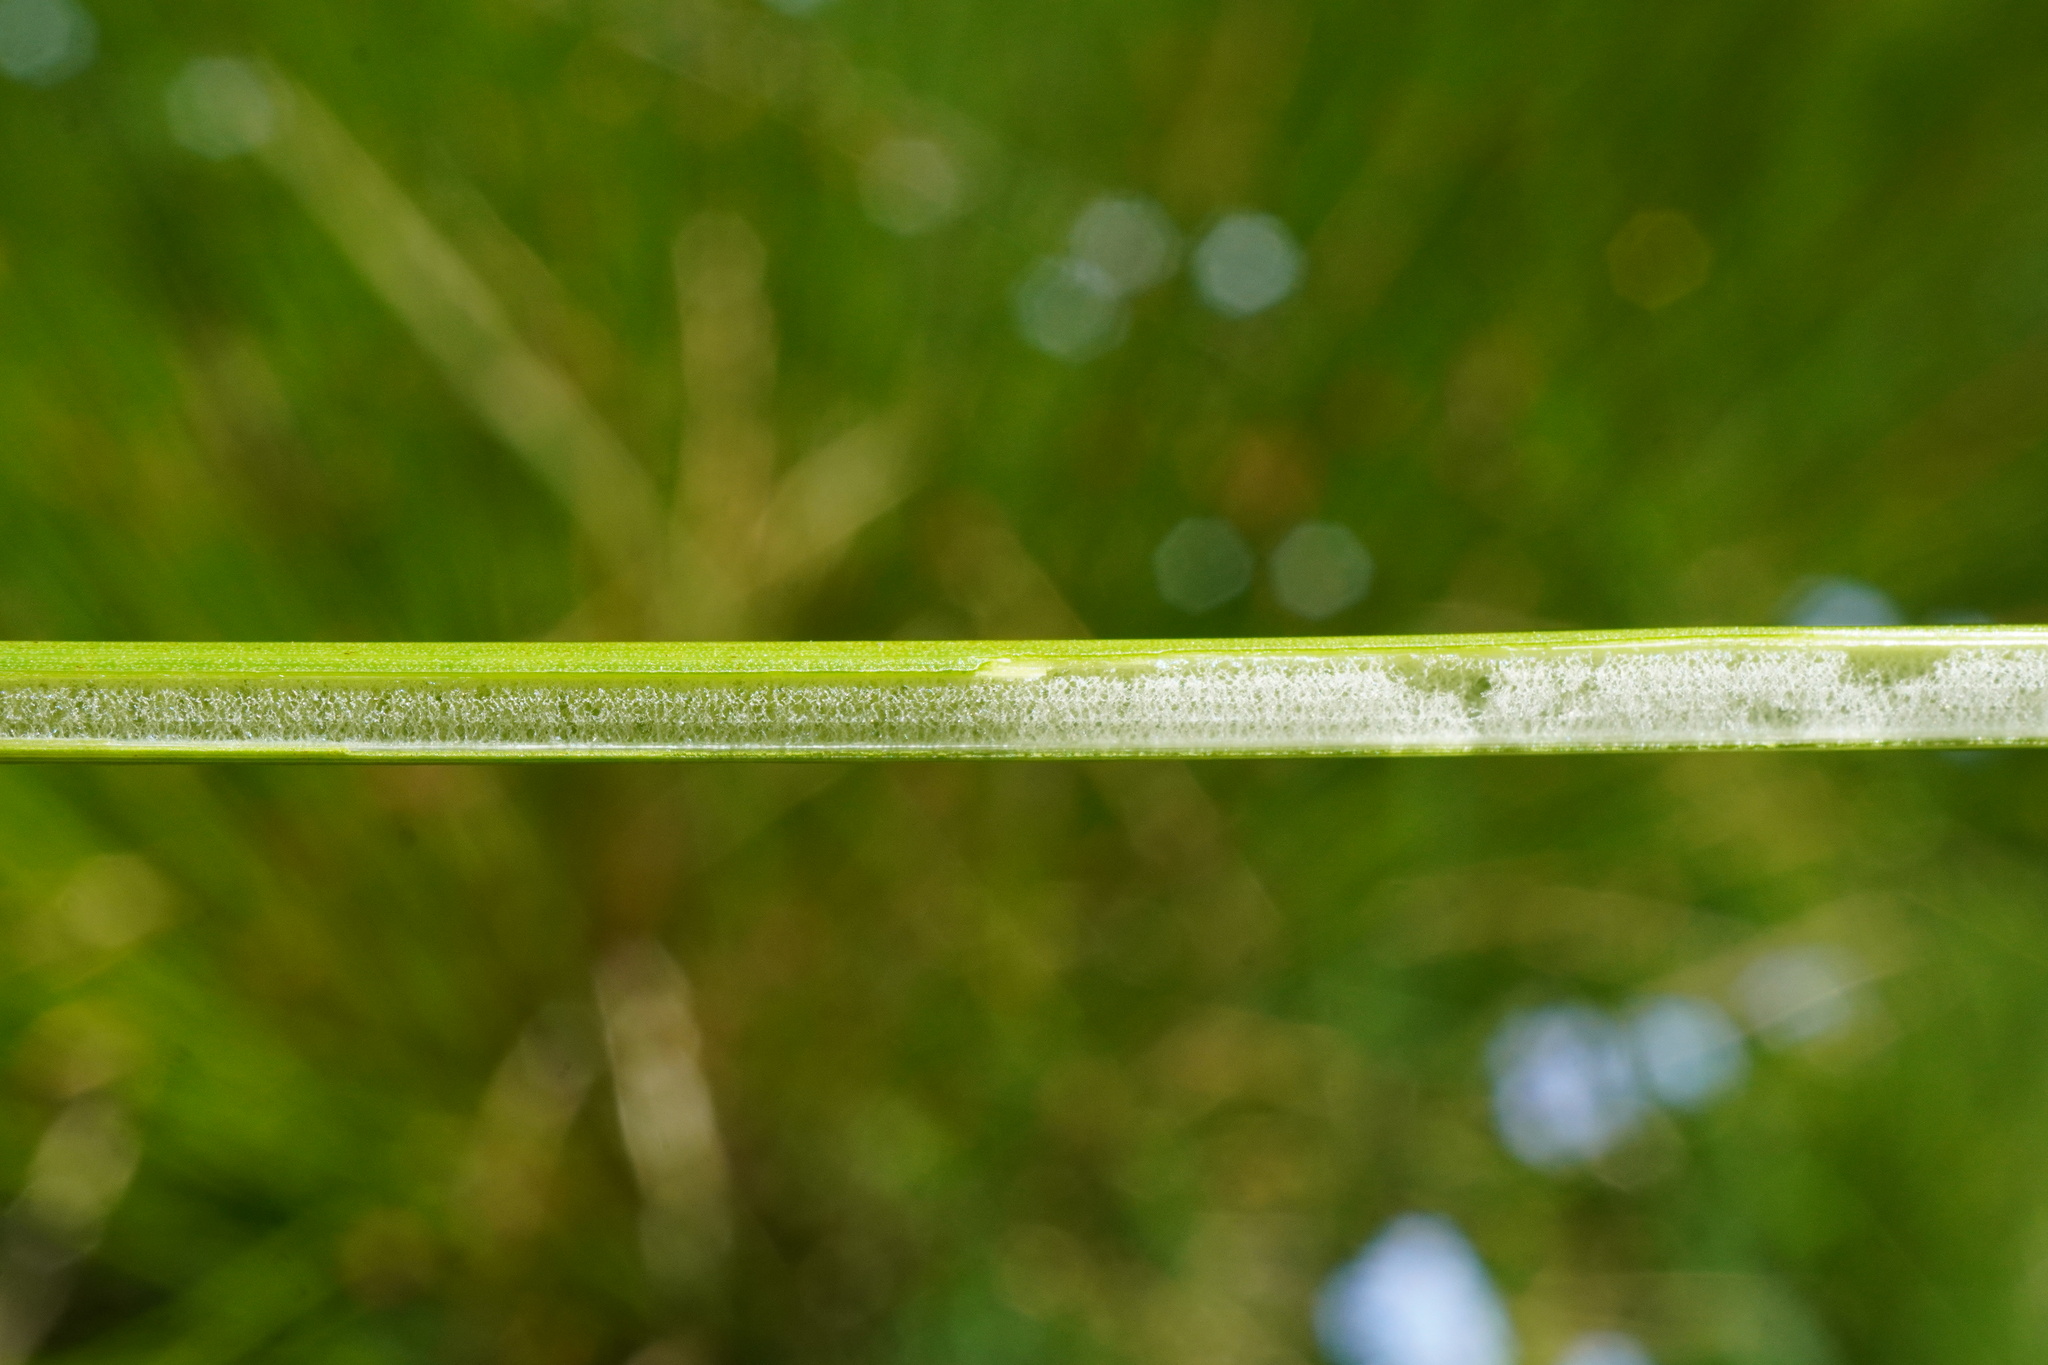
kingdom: Plantae
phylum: Tracheophyta
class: Liliopsida
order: Poales
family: Juncaceae
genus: Juncus
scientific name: Juncus effusus
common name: Soft rush
